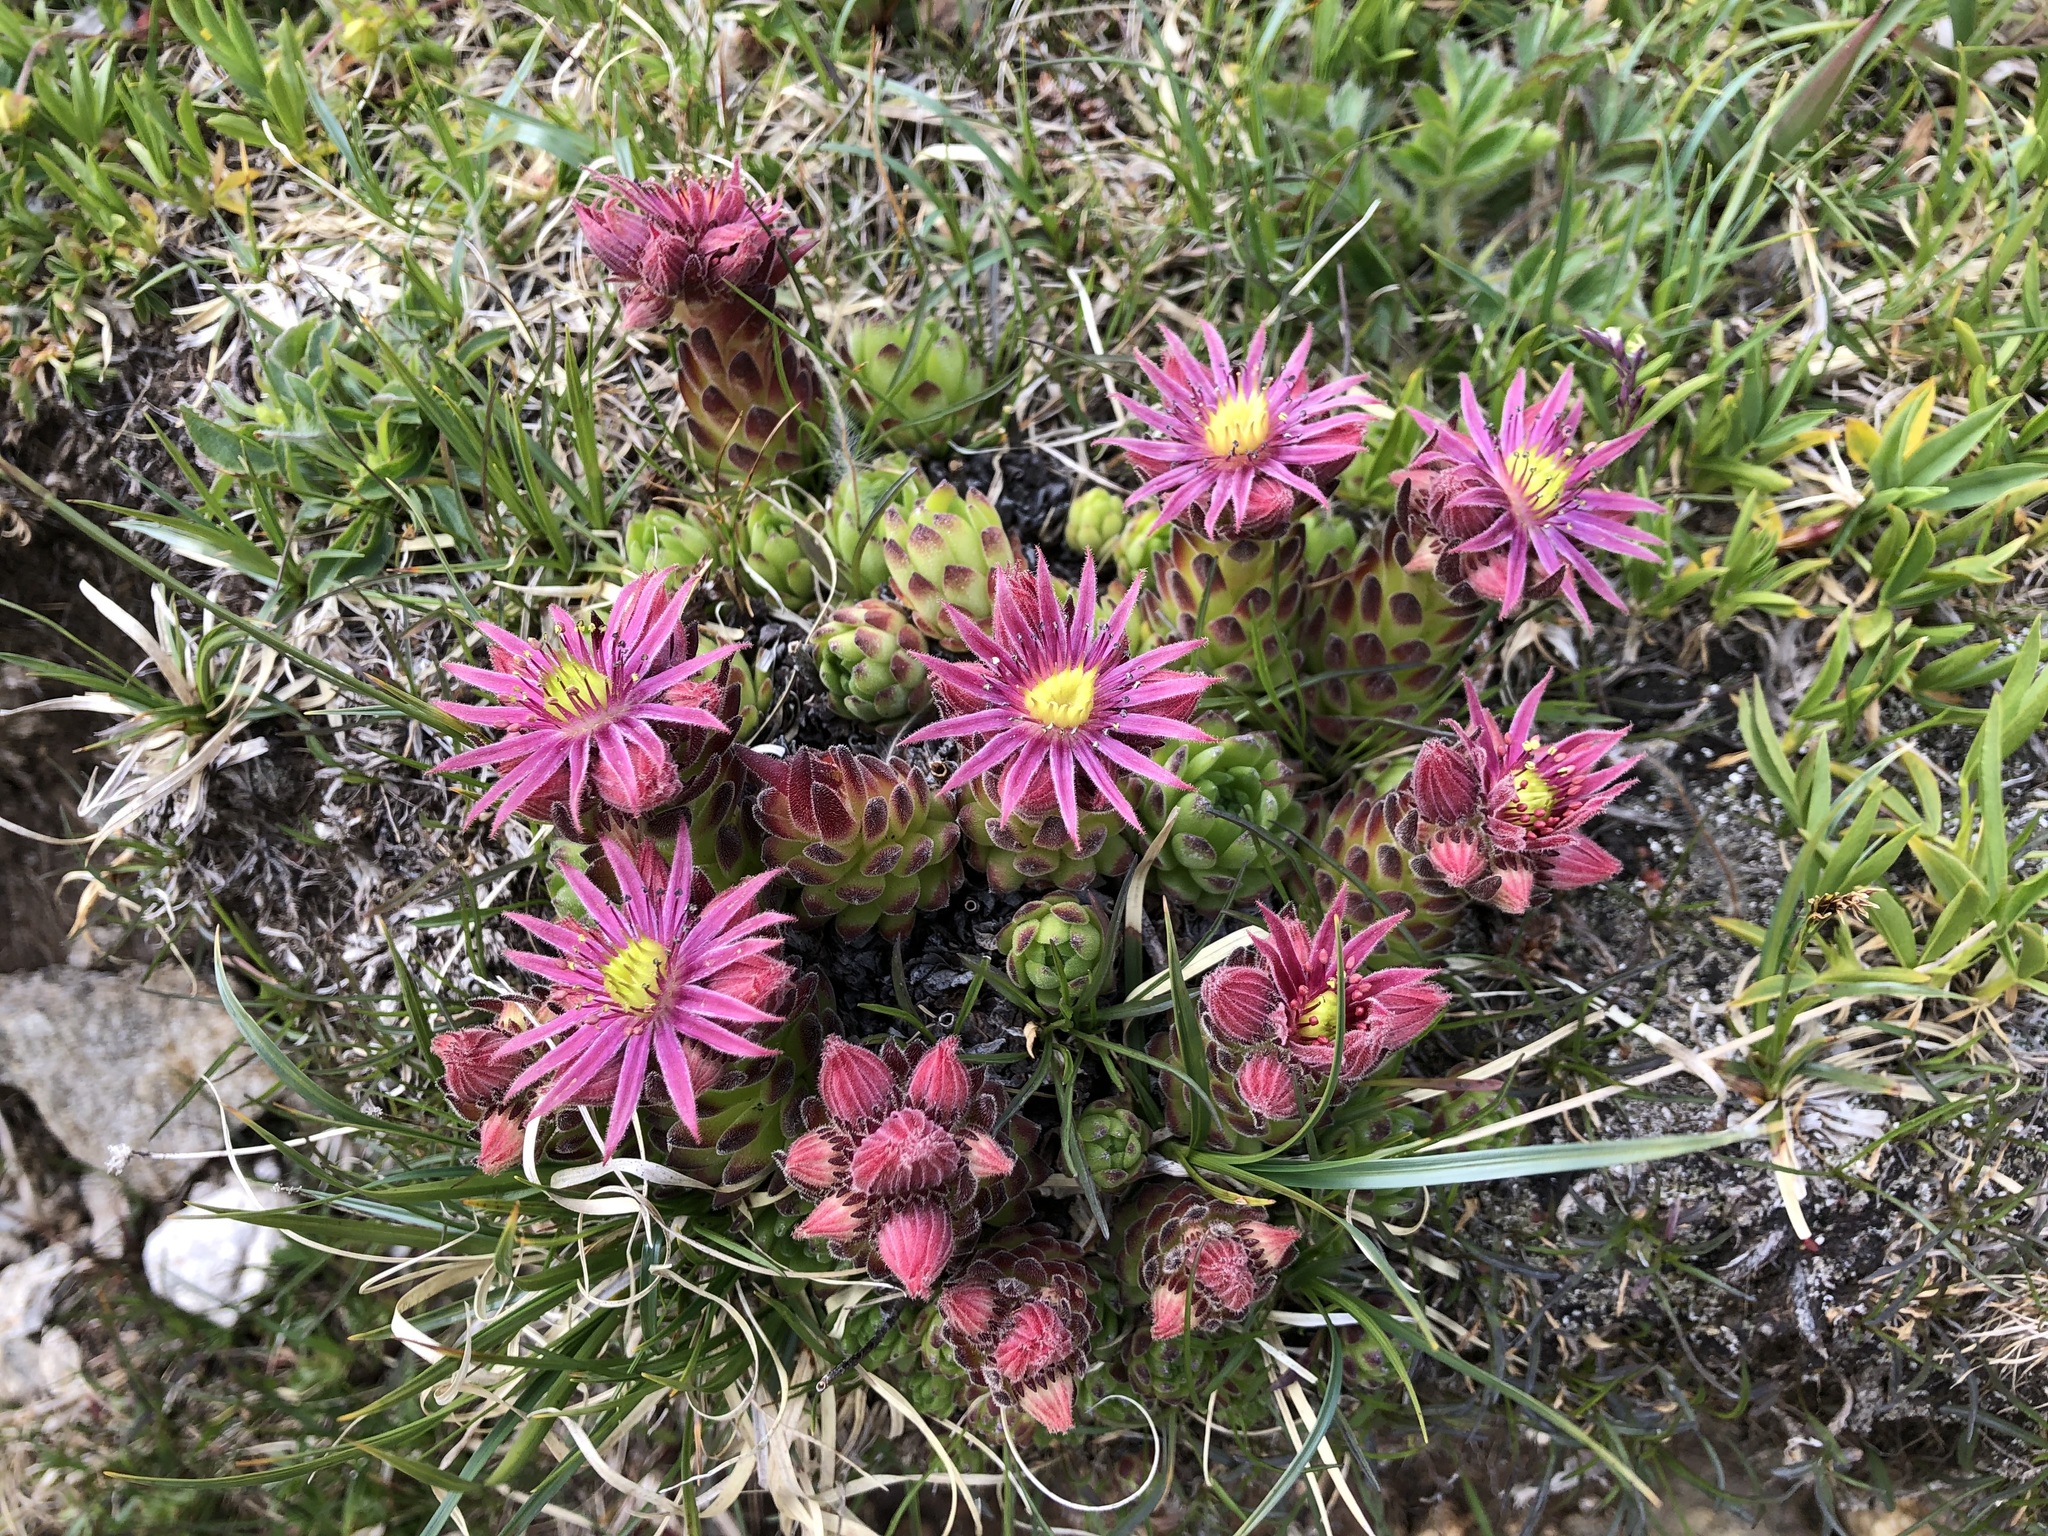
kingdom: Plantae
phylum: Tracheophyta
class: Magnoliopsida
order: Saxifragales
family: Crassulaceae
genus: Sempervivum
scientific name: Sempervivum montanum
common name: Mountain house-leek
